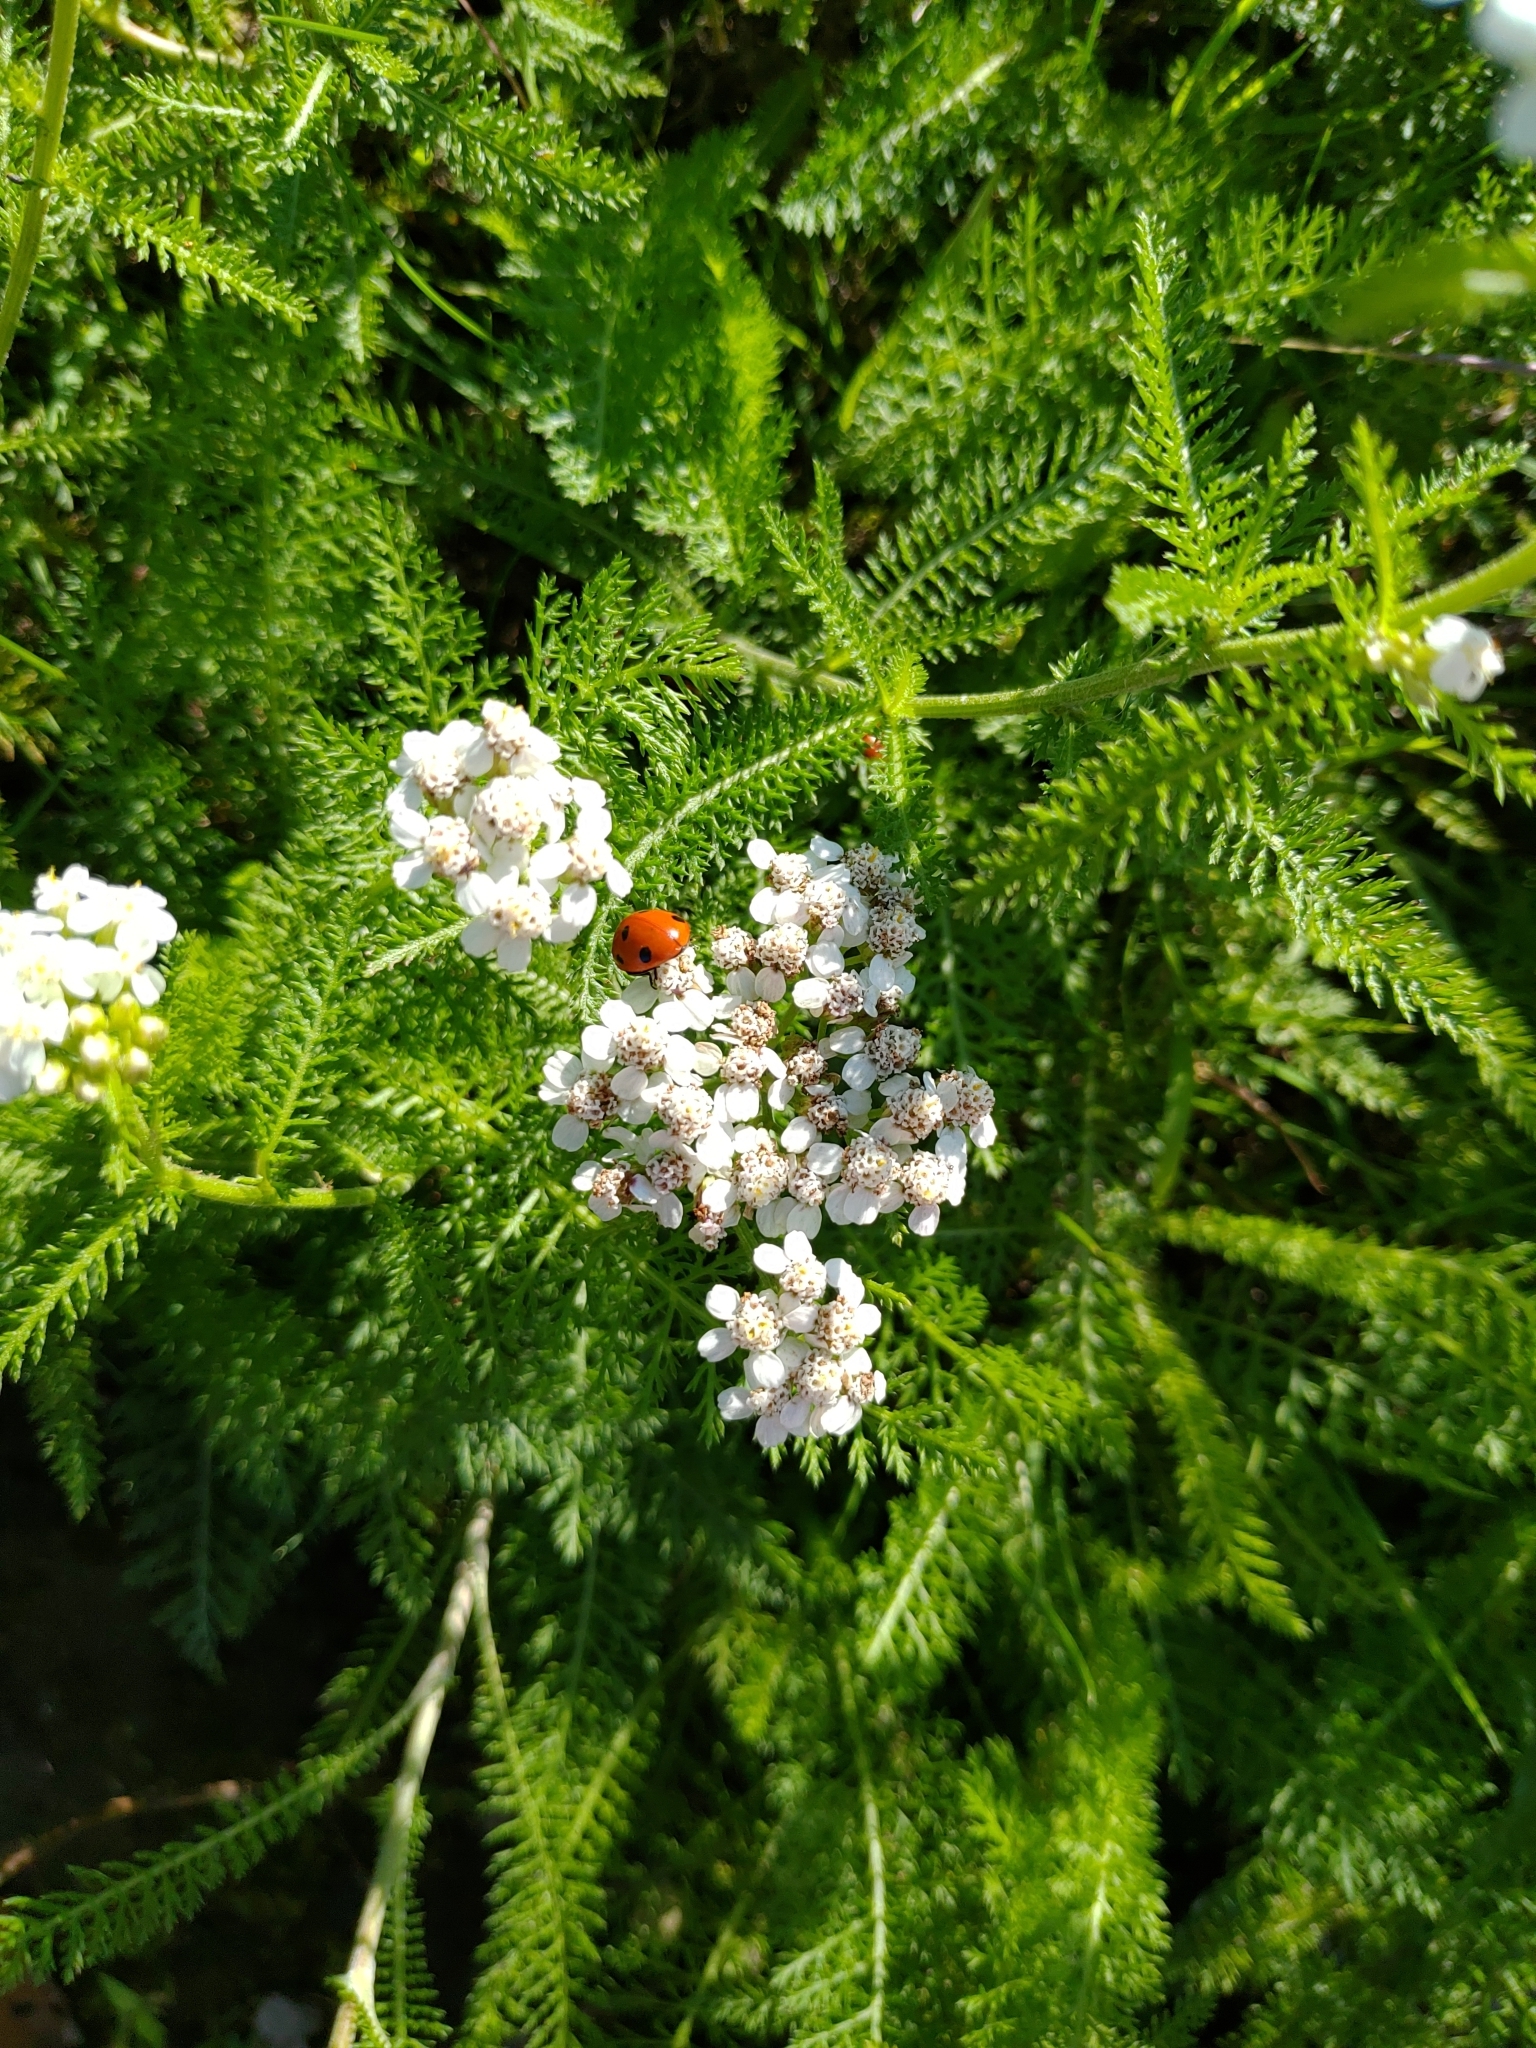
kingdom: Plantae
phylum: Tracheophyta
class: Magnoliopsida
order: Asterales
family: Asteraceae
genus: Achillea
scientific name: Achillea millefolium
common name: Yarrow
